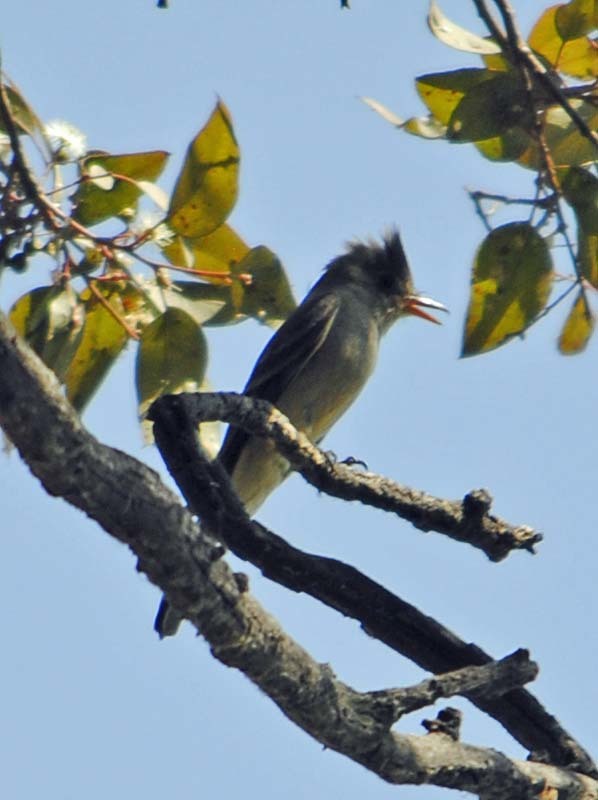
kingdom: Animalia
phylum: Chordata
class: Aves
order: Passeriformes
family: Tyrannidae
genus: Contopus
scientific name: Contopus pertinax
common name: Greater pewee
